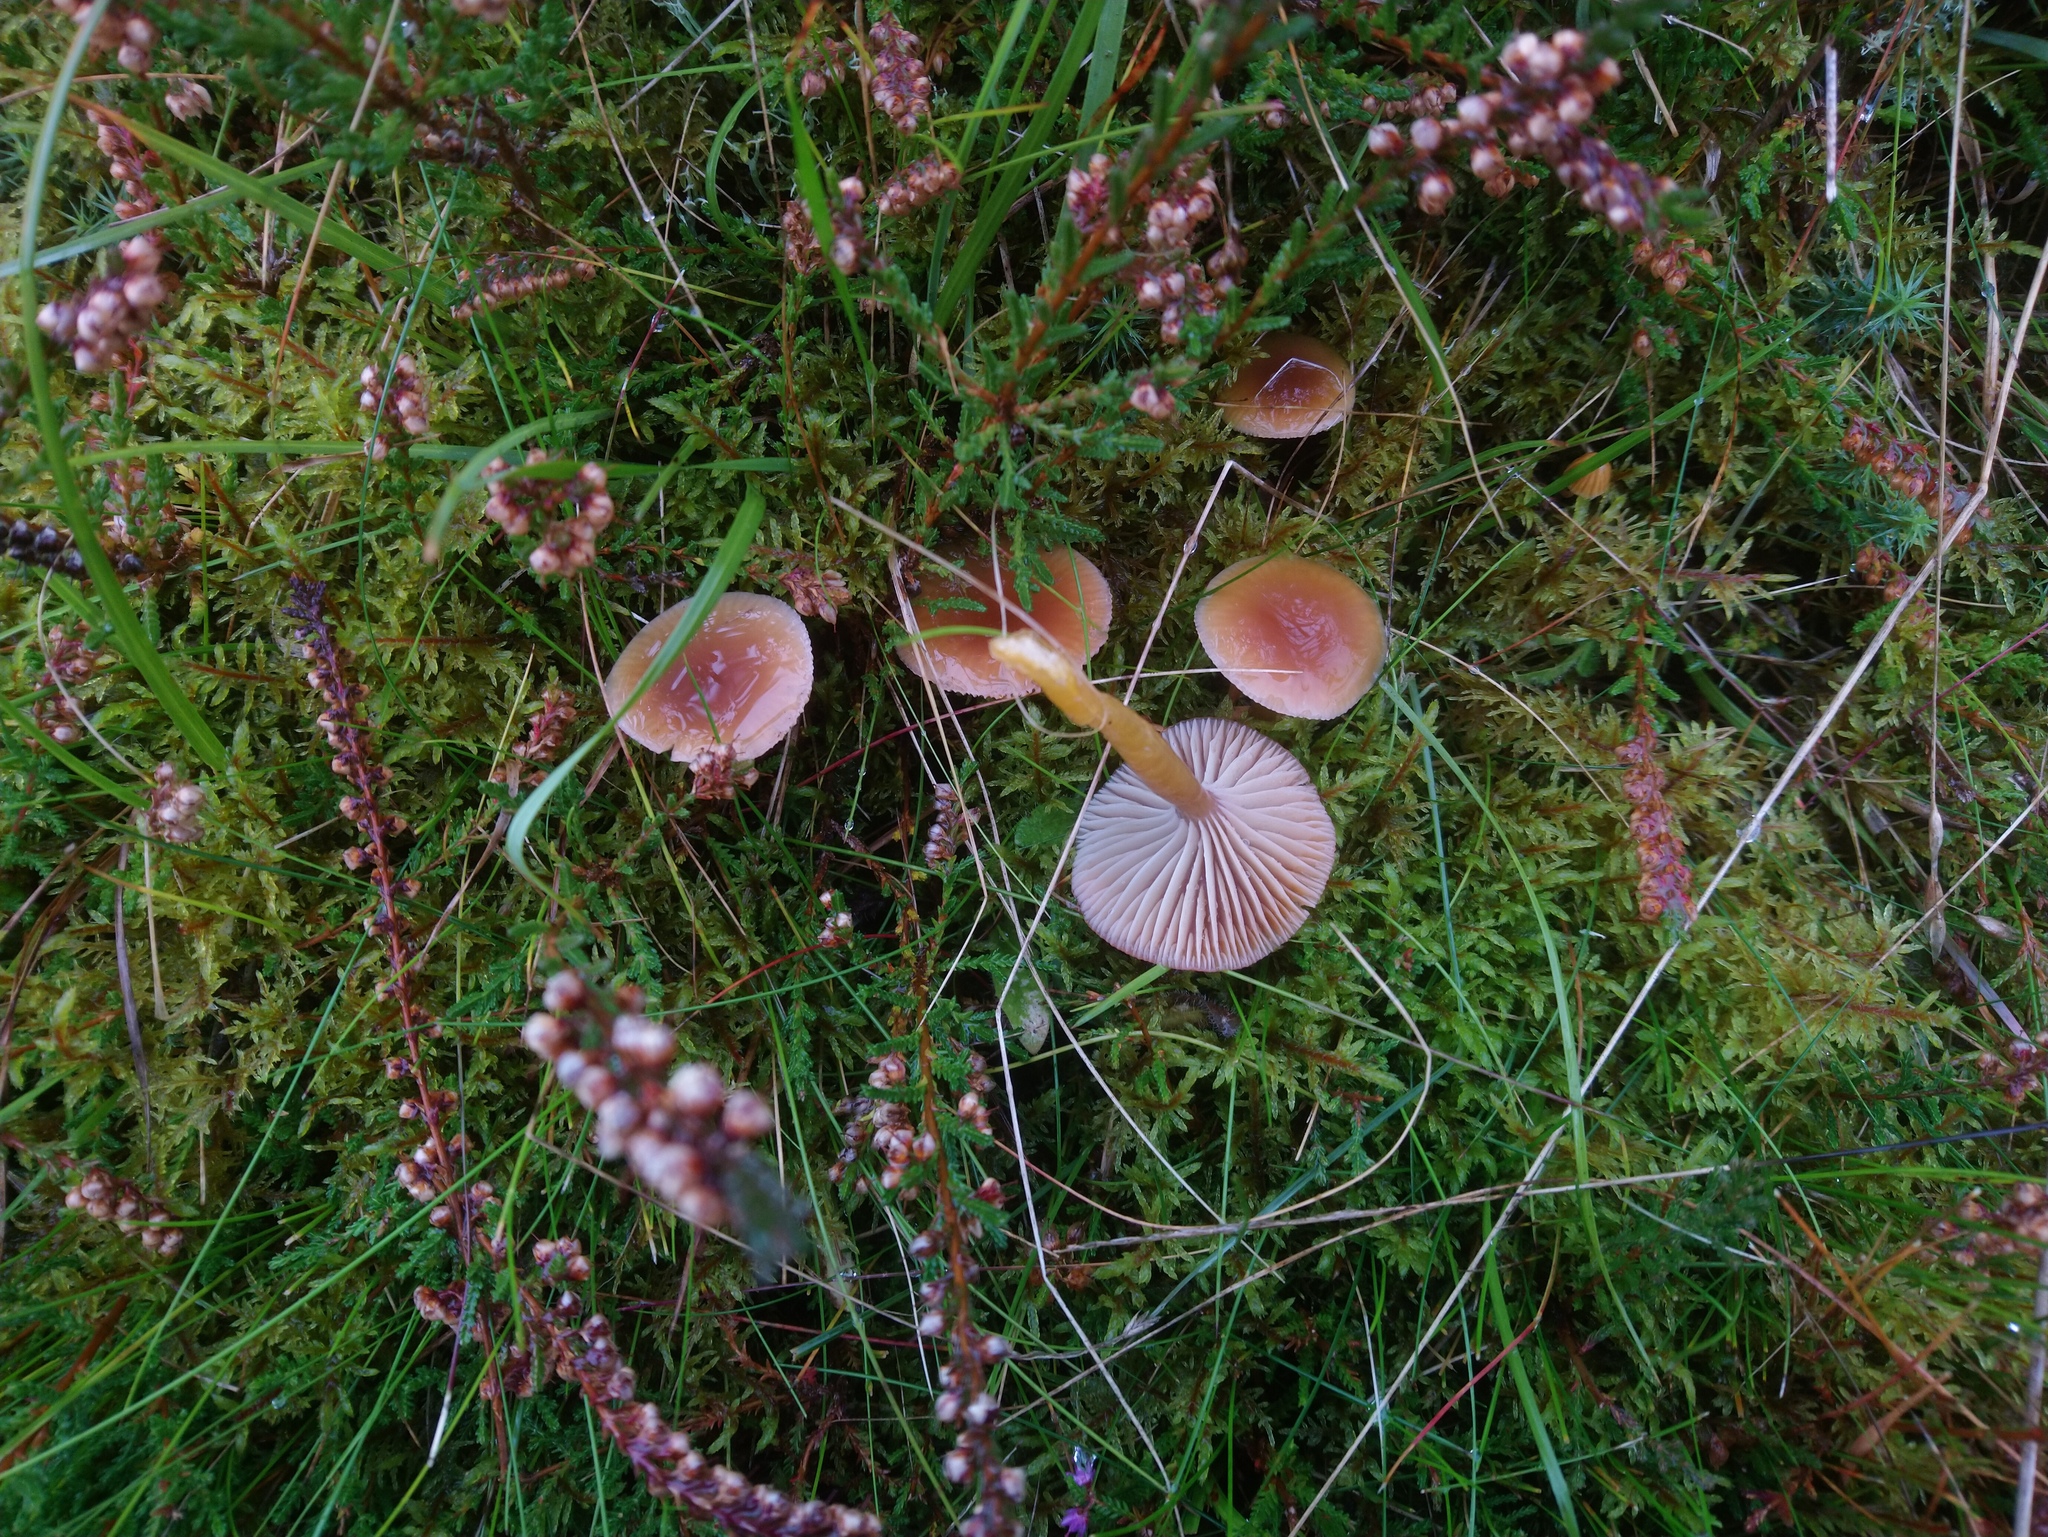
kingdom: Fungi
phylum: Basidiomycota
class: Agaricomycetes
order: Agaricales
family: Hygrophoraceae
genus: Gliophorus
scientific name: Gliophorus laetus
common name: Heath waxcap
